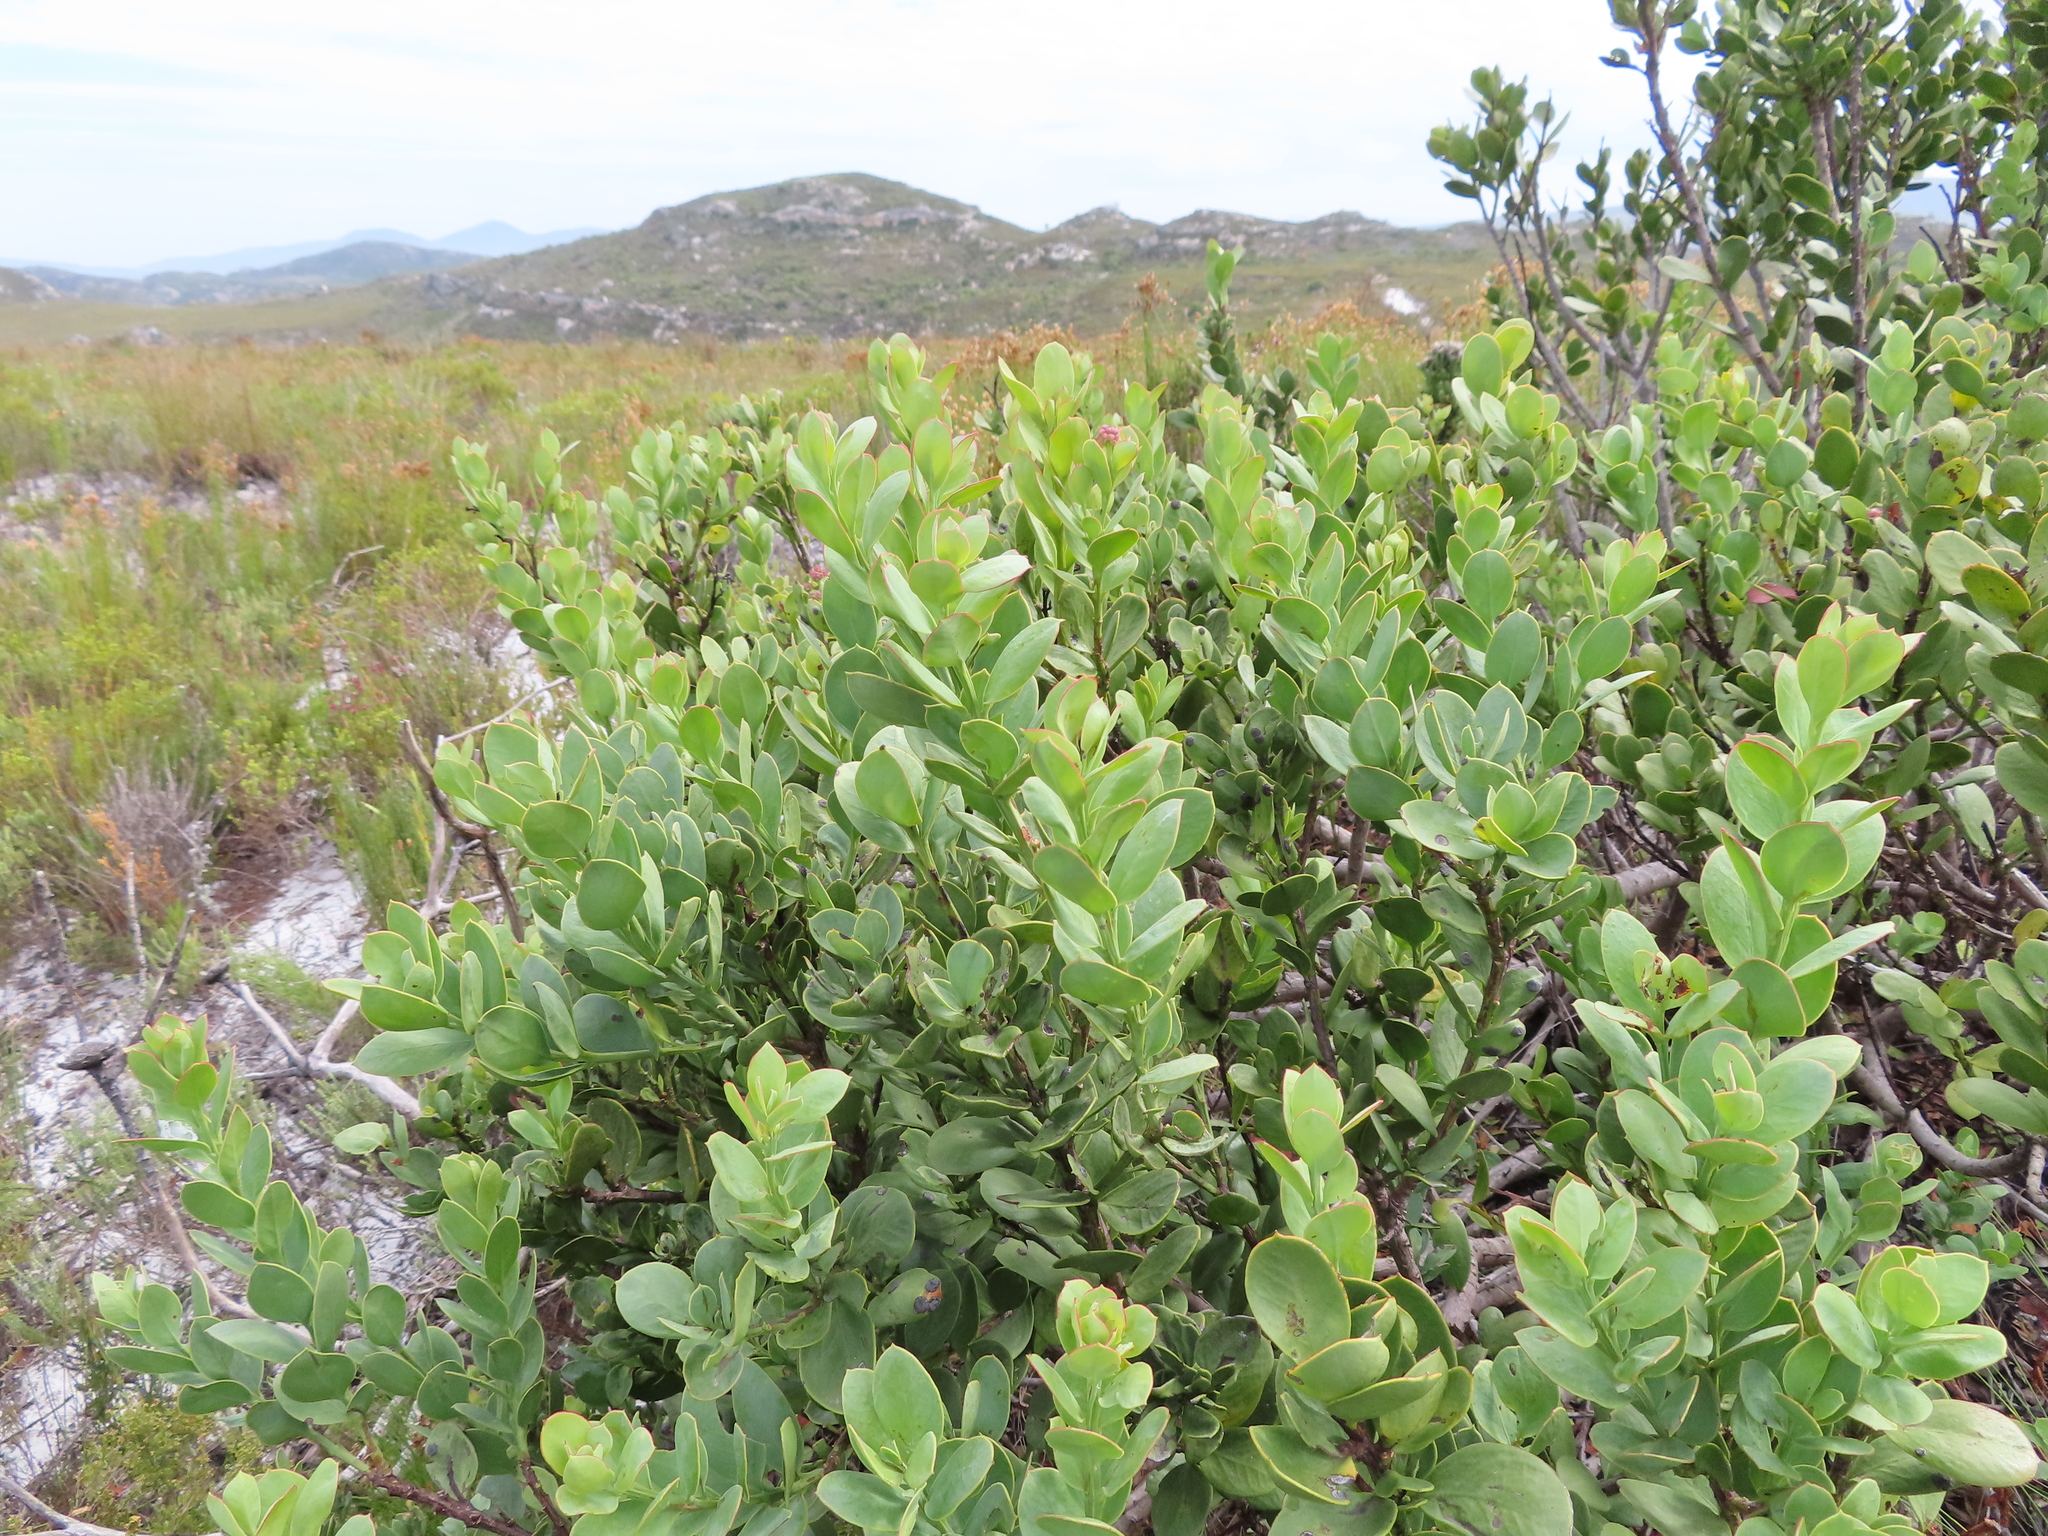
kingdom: Plantae
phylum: Tracheophyta
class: Magnoliopsida
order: Santalales
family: Santalaceae
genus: Osyris
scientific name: Osyris compressa
